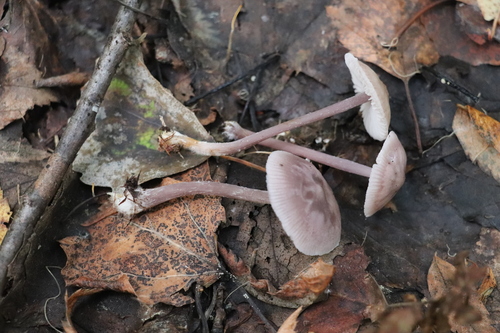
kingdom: Fungi
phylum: Basidiomycota
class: Agaricomycetes
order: Agaricales
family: Mycenaceae
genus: Mycena
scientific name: Mycena pura
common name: Lilac bonnet
